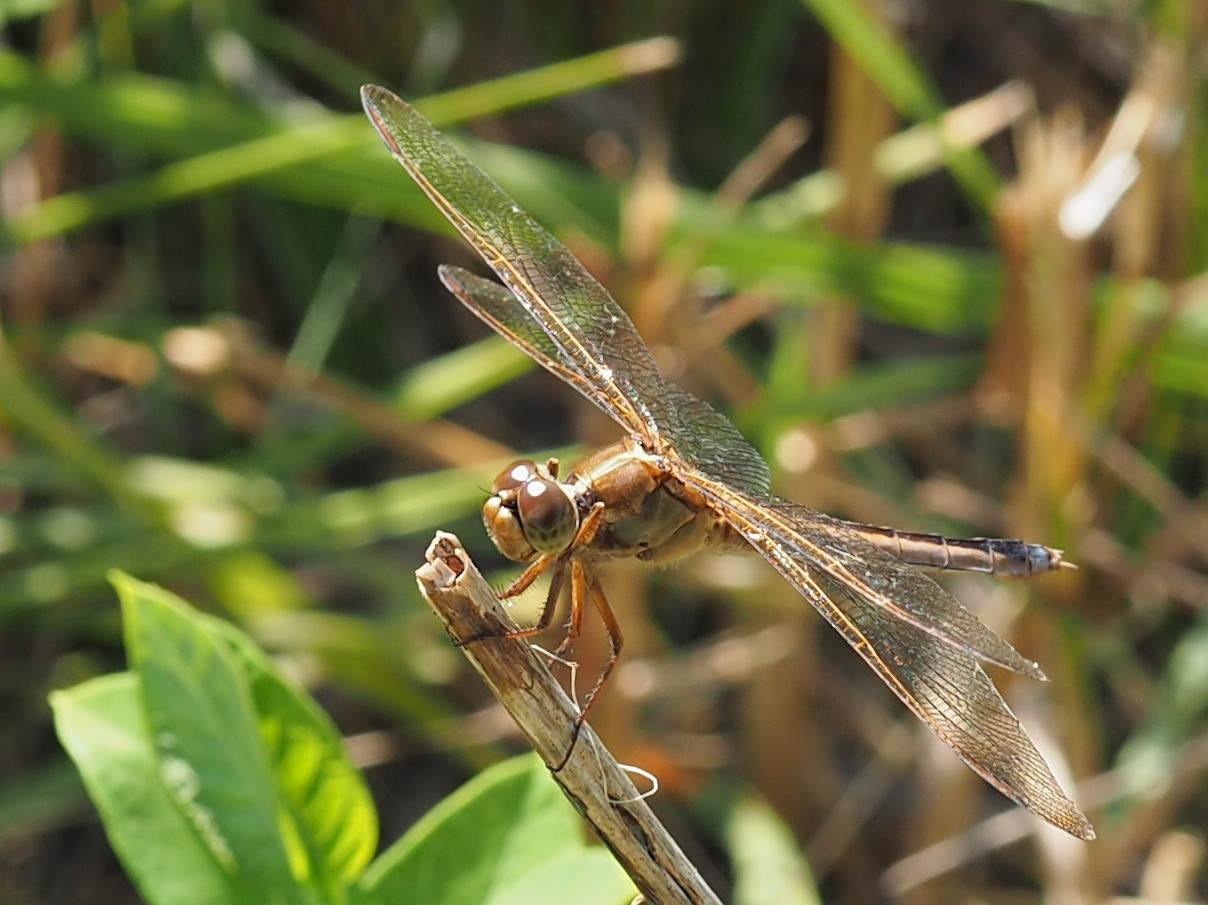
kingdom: Animalia
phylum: Arthropoda
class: Insecta
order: Odonata
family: Libellulidae
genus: Libellula
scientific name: Libellula needhami
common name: Needham's skimmer
